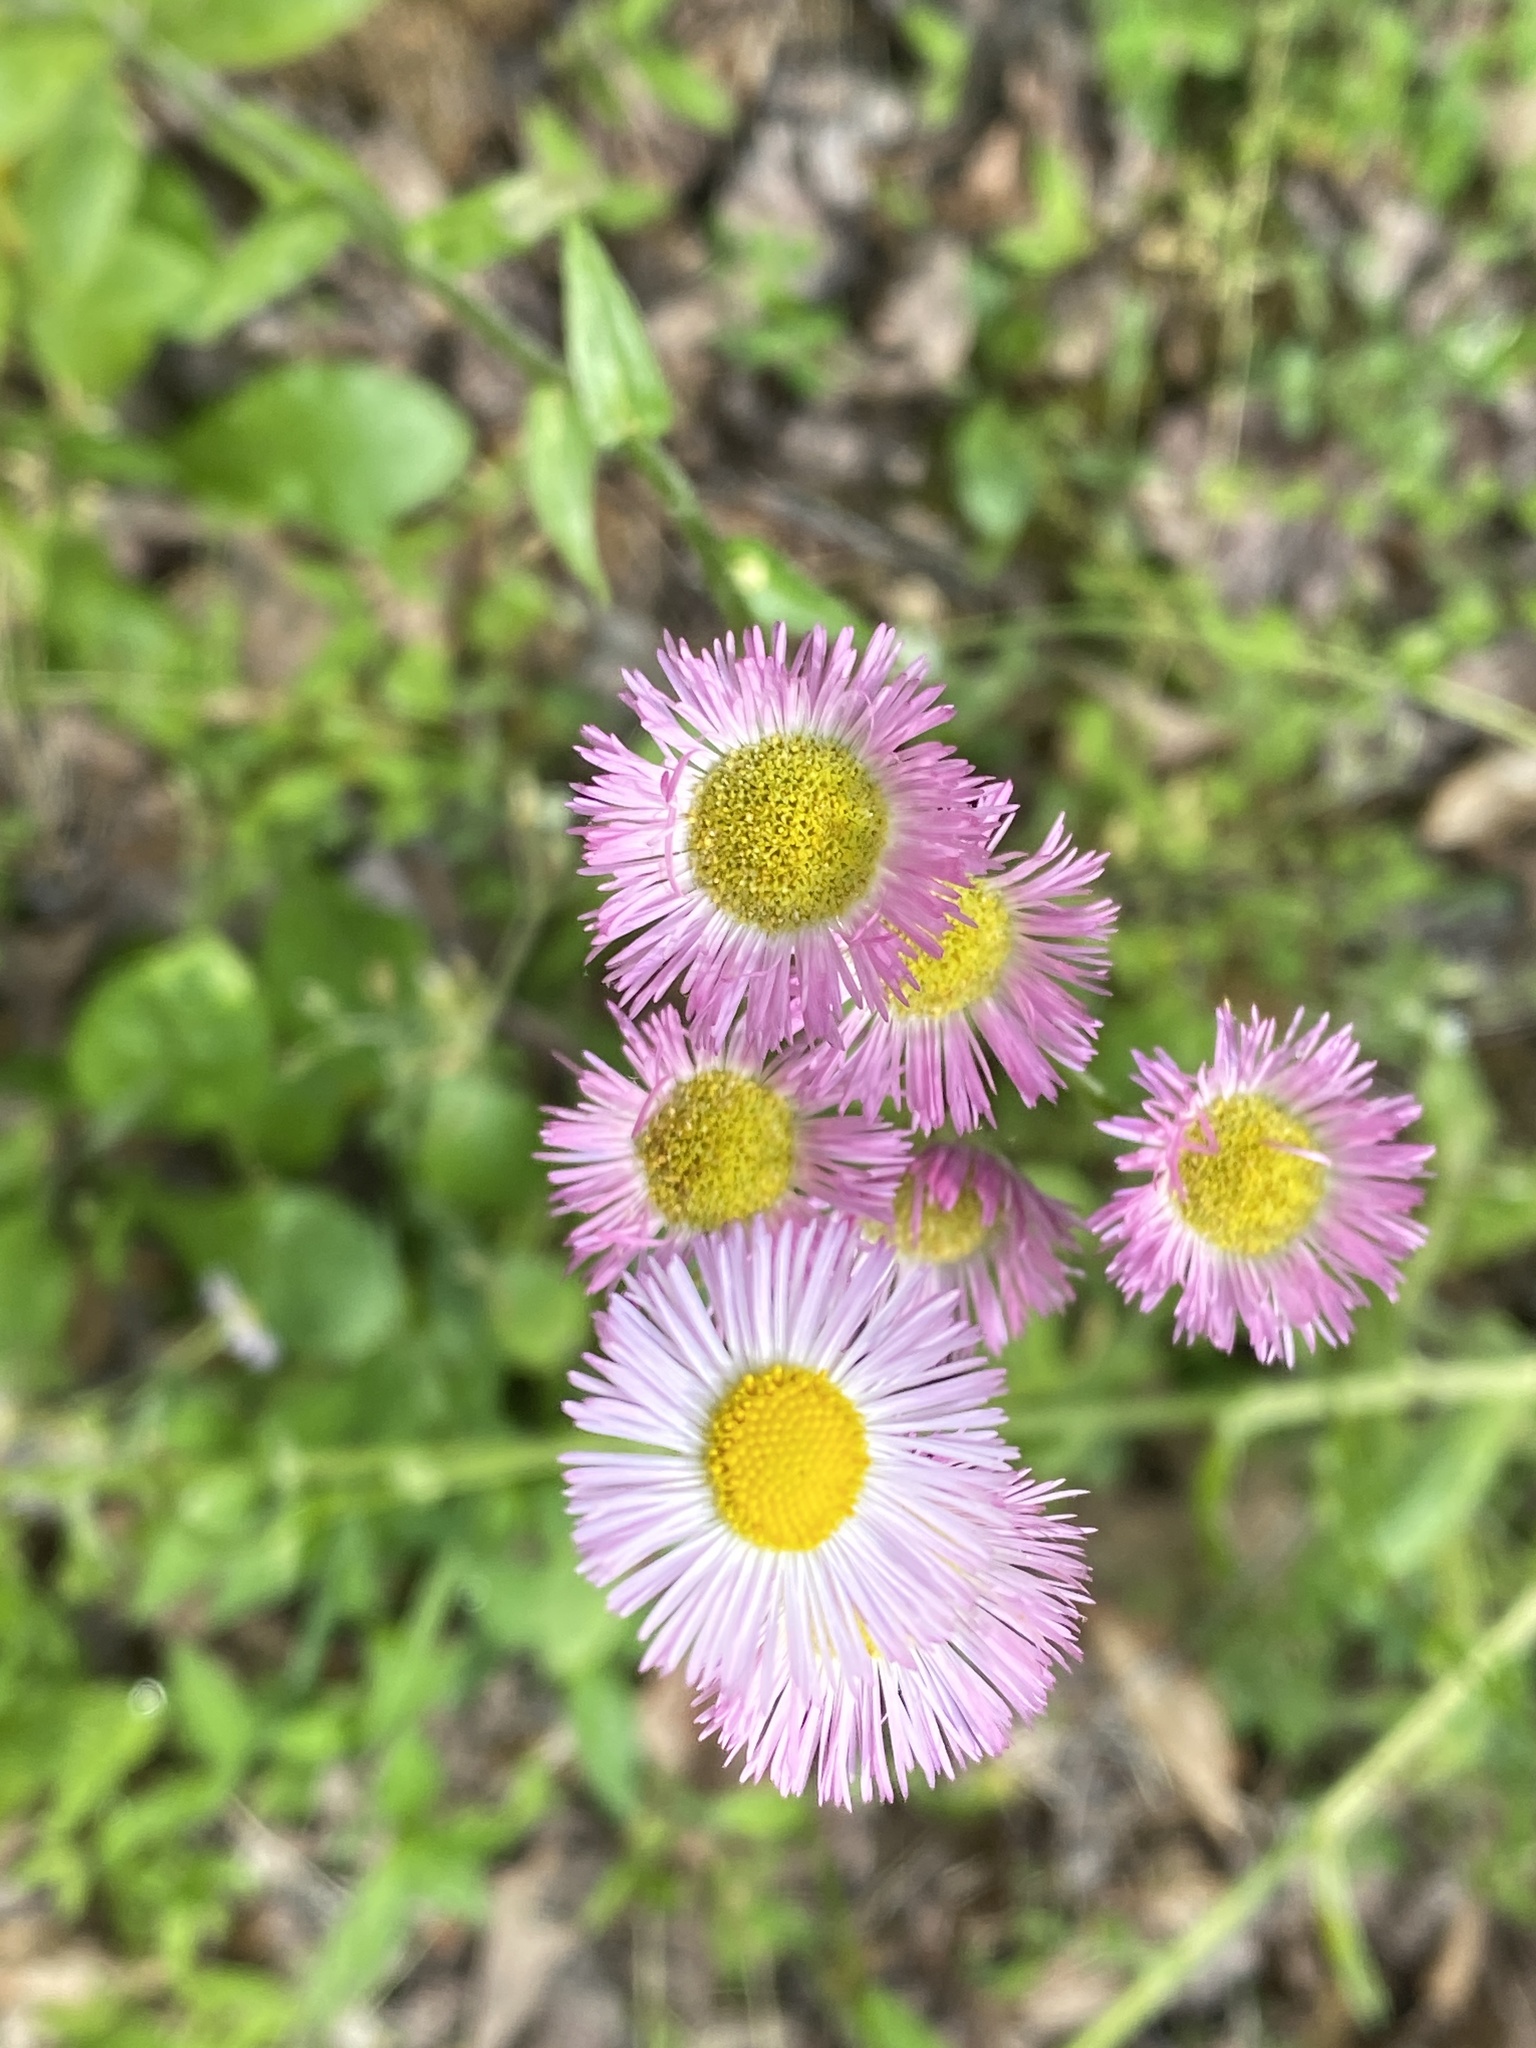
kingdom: Plantae
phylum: Tracheophyta
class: Magnoliopsida
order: Asterales
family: Asteraceae
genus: Erigeron
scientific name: Erigeron philadelphicus
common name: Robin's-plantain
